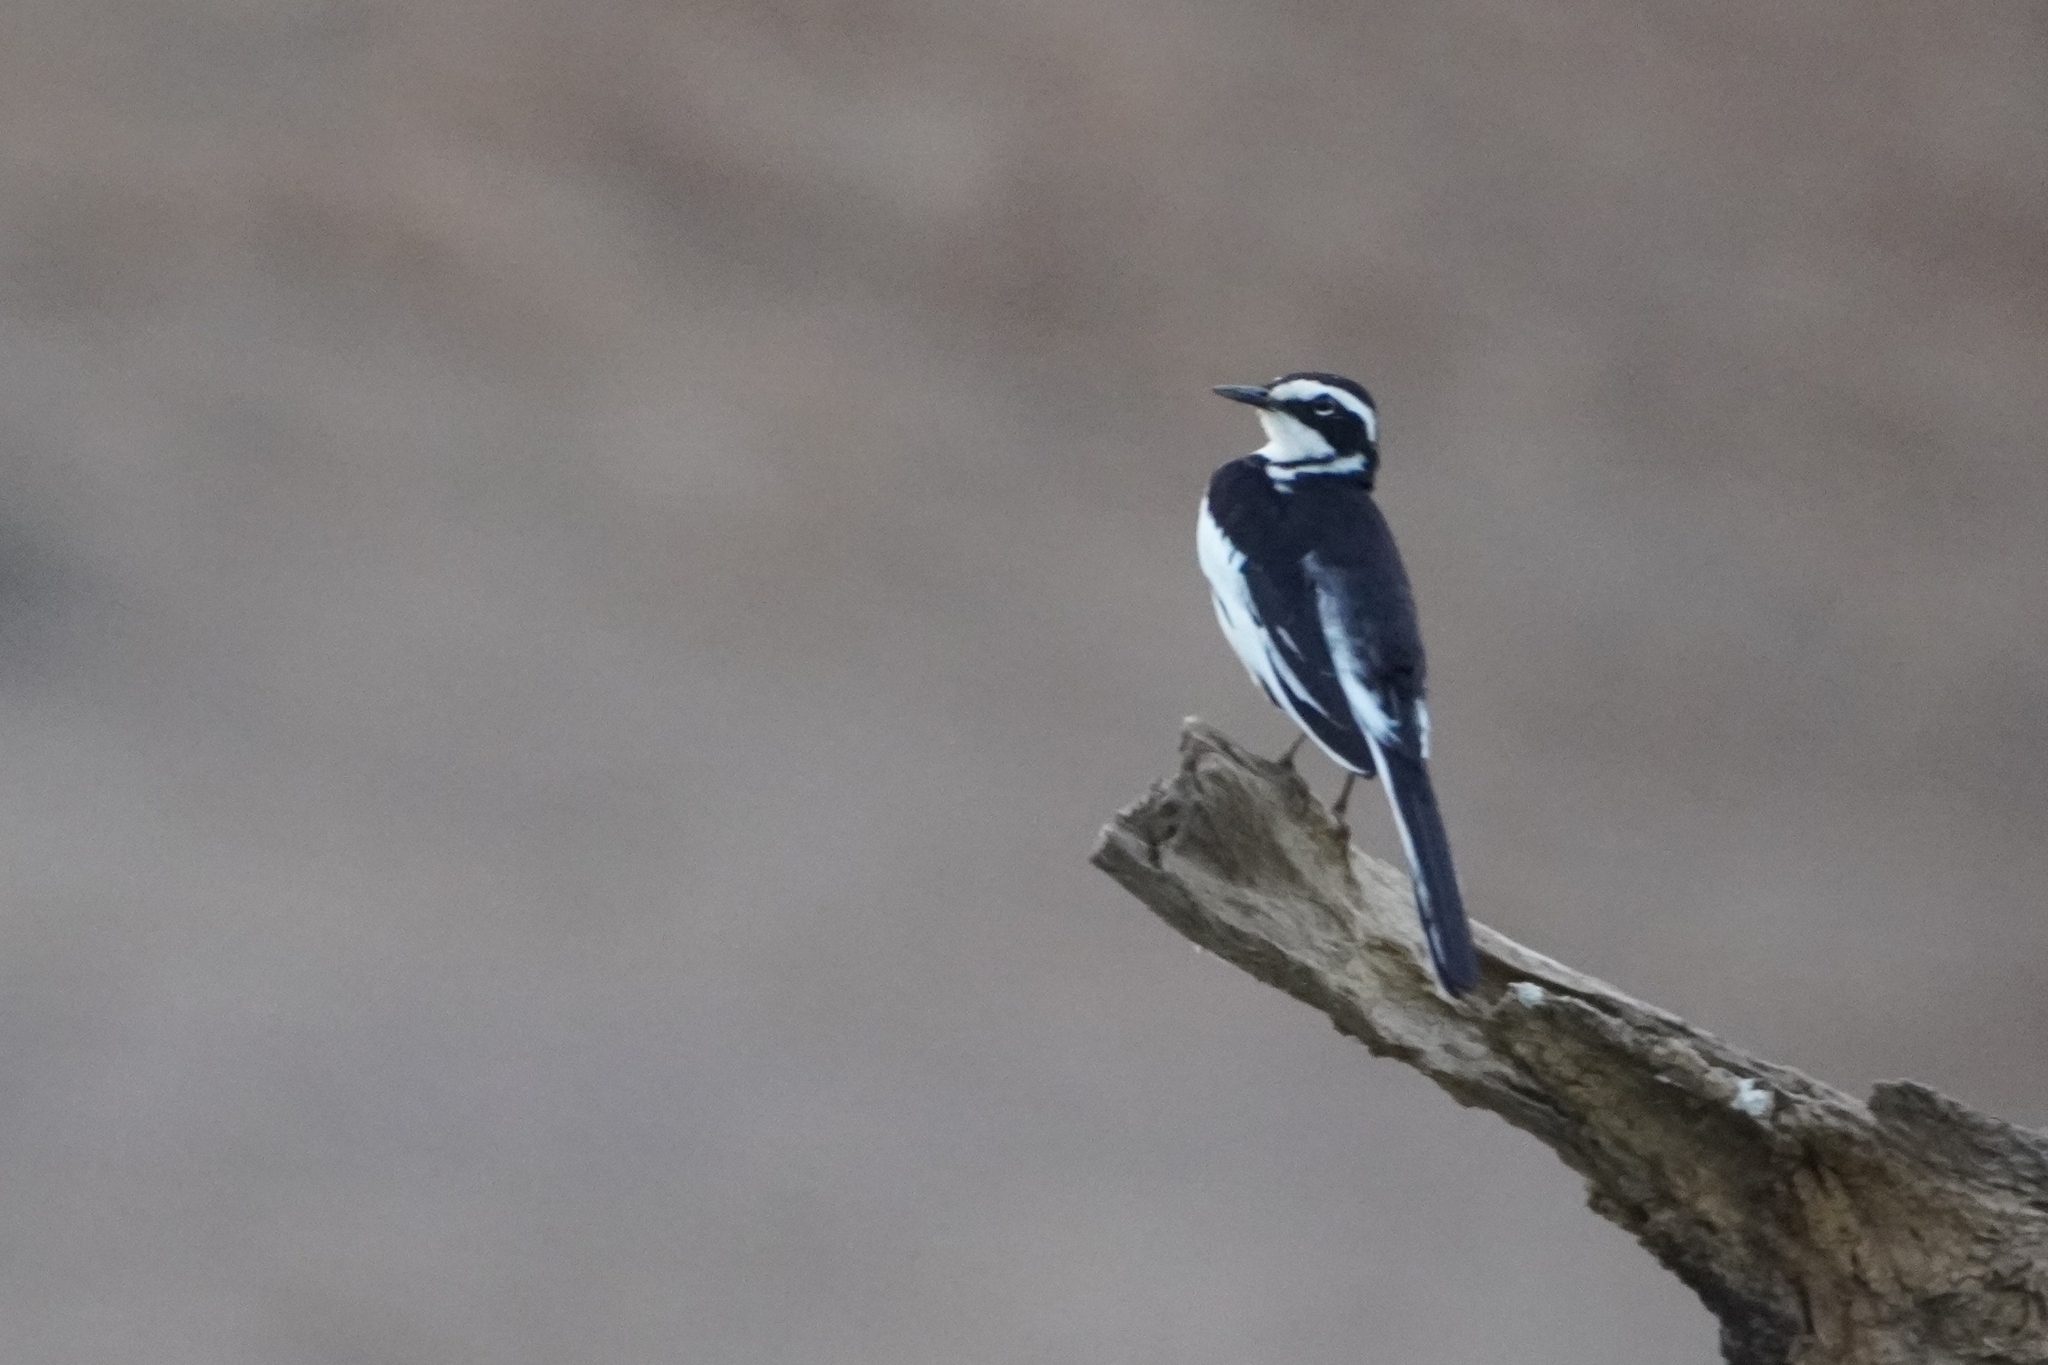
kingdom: Animalia
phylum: Chordata
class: Aves
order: Passeriformes
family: Motacillidae
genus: Motacilla
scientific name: Motacilla aguimp
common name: African pied wagtail
